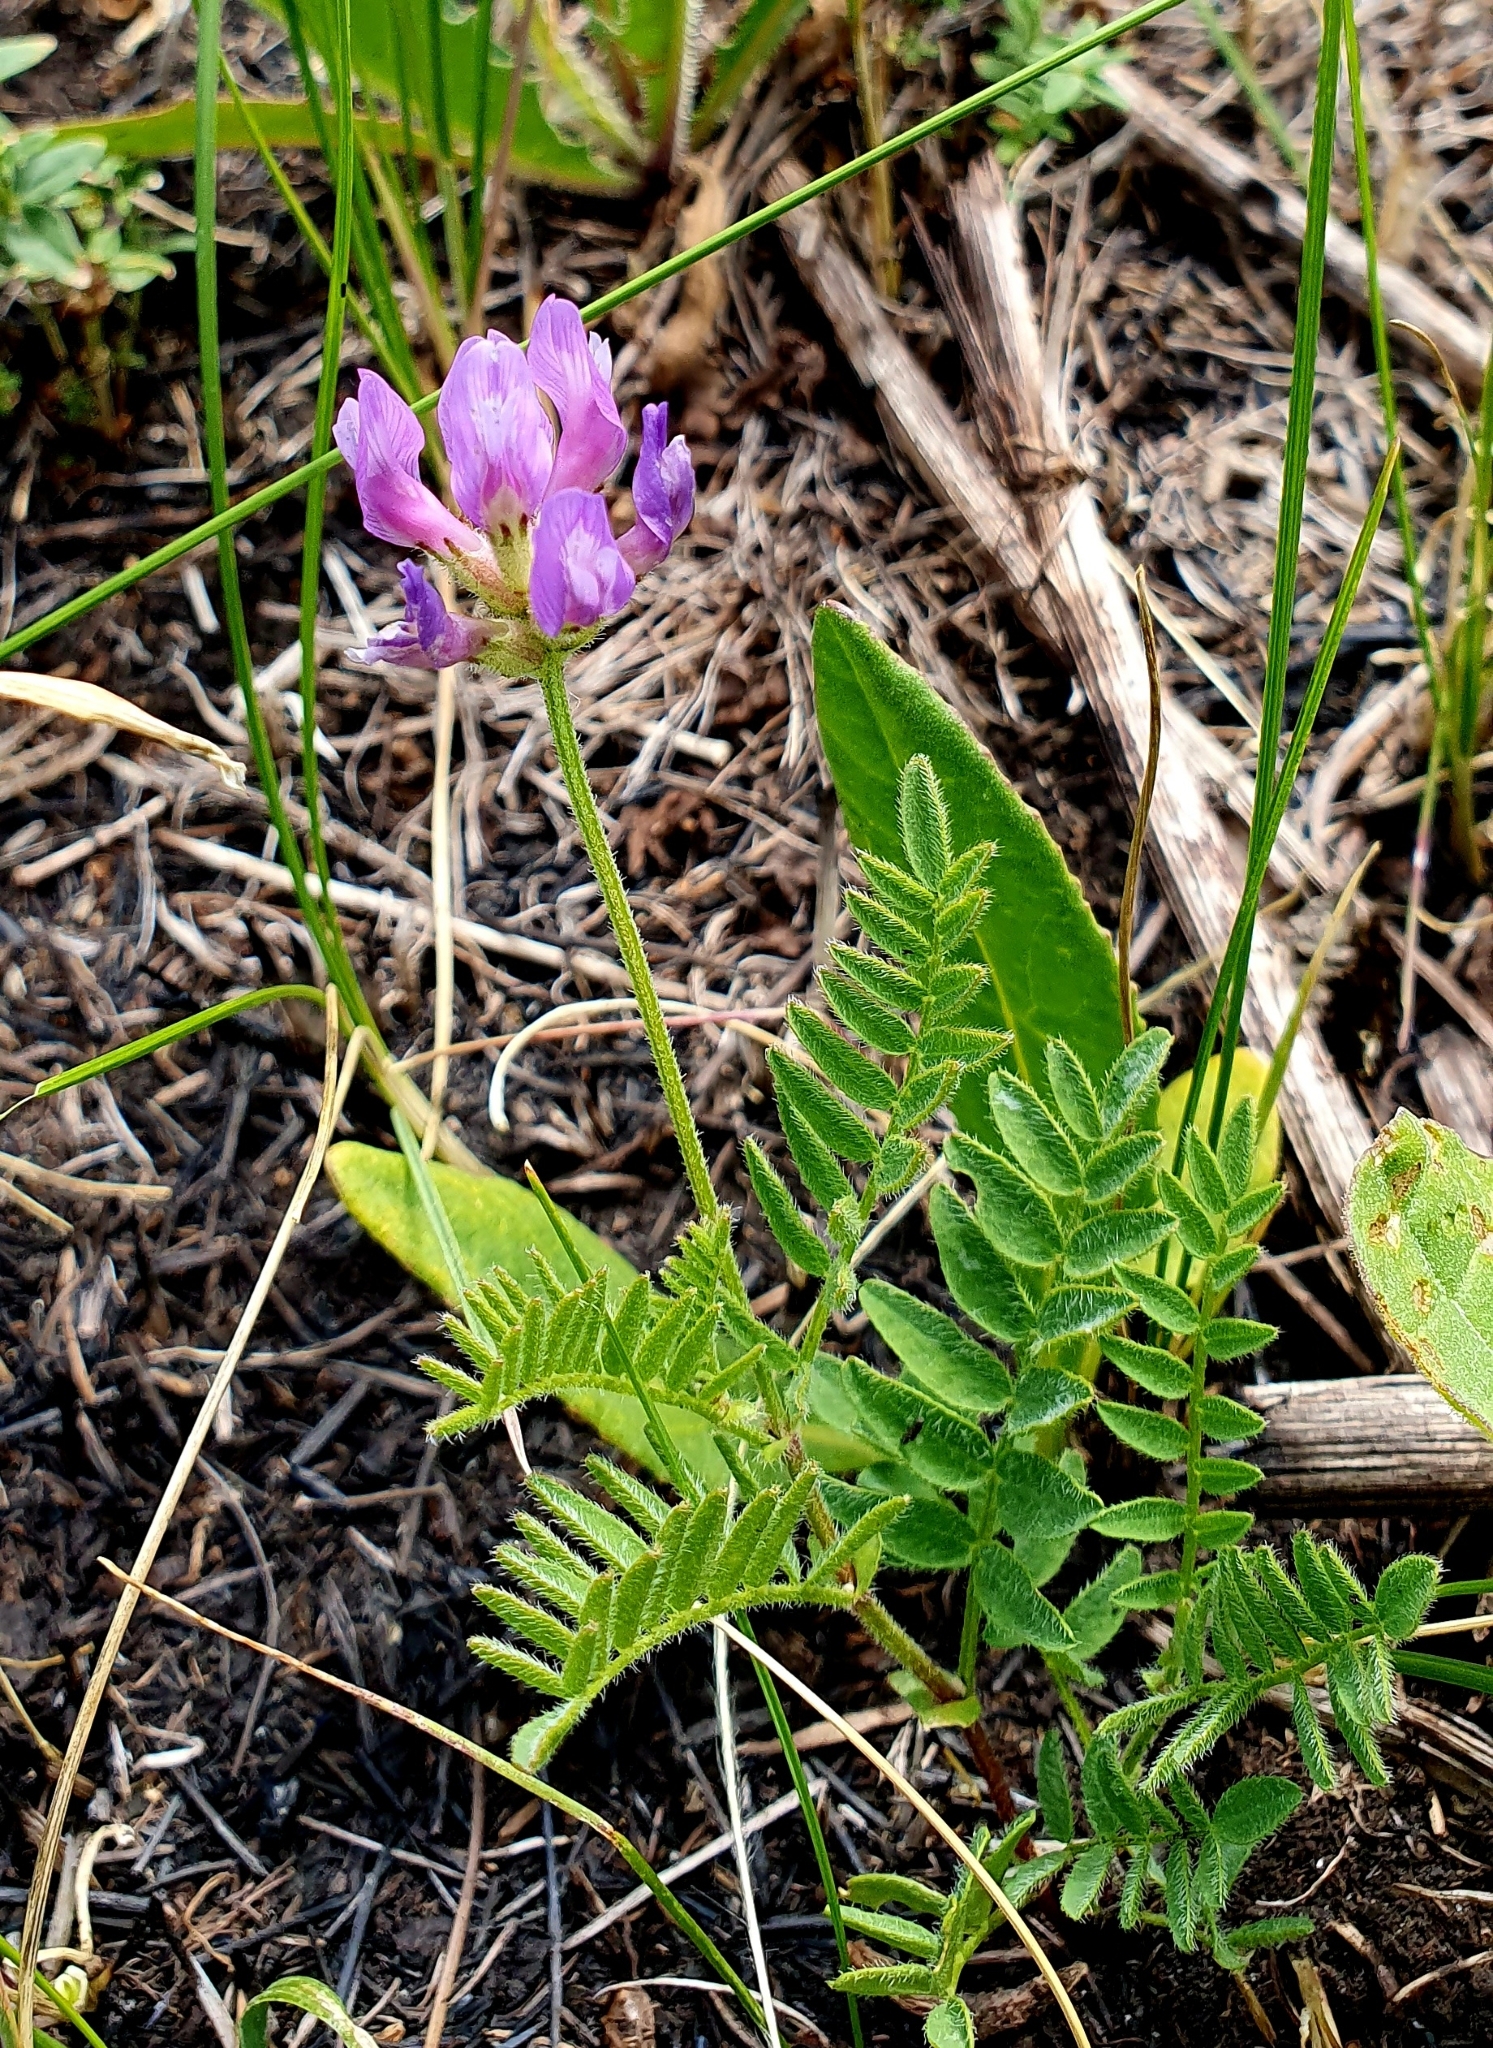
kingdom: Plantae
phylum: Tracheophyta
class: Magnoliopsida
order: Fabales
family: Fabaceae
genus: Astragalus
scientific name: Astragalus danicus
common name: Purple milk-vetch
